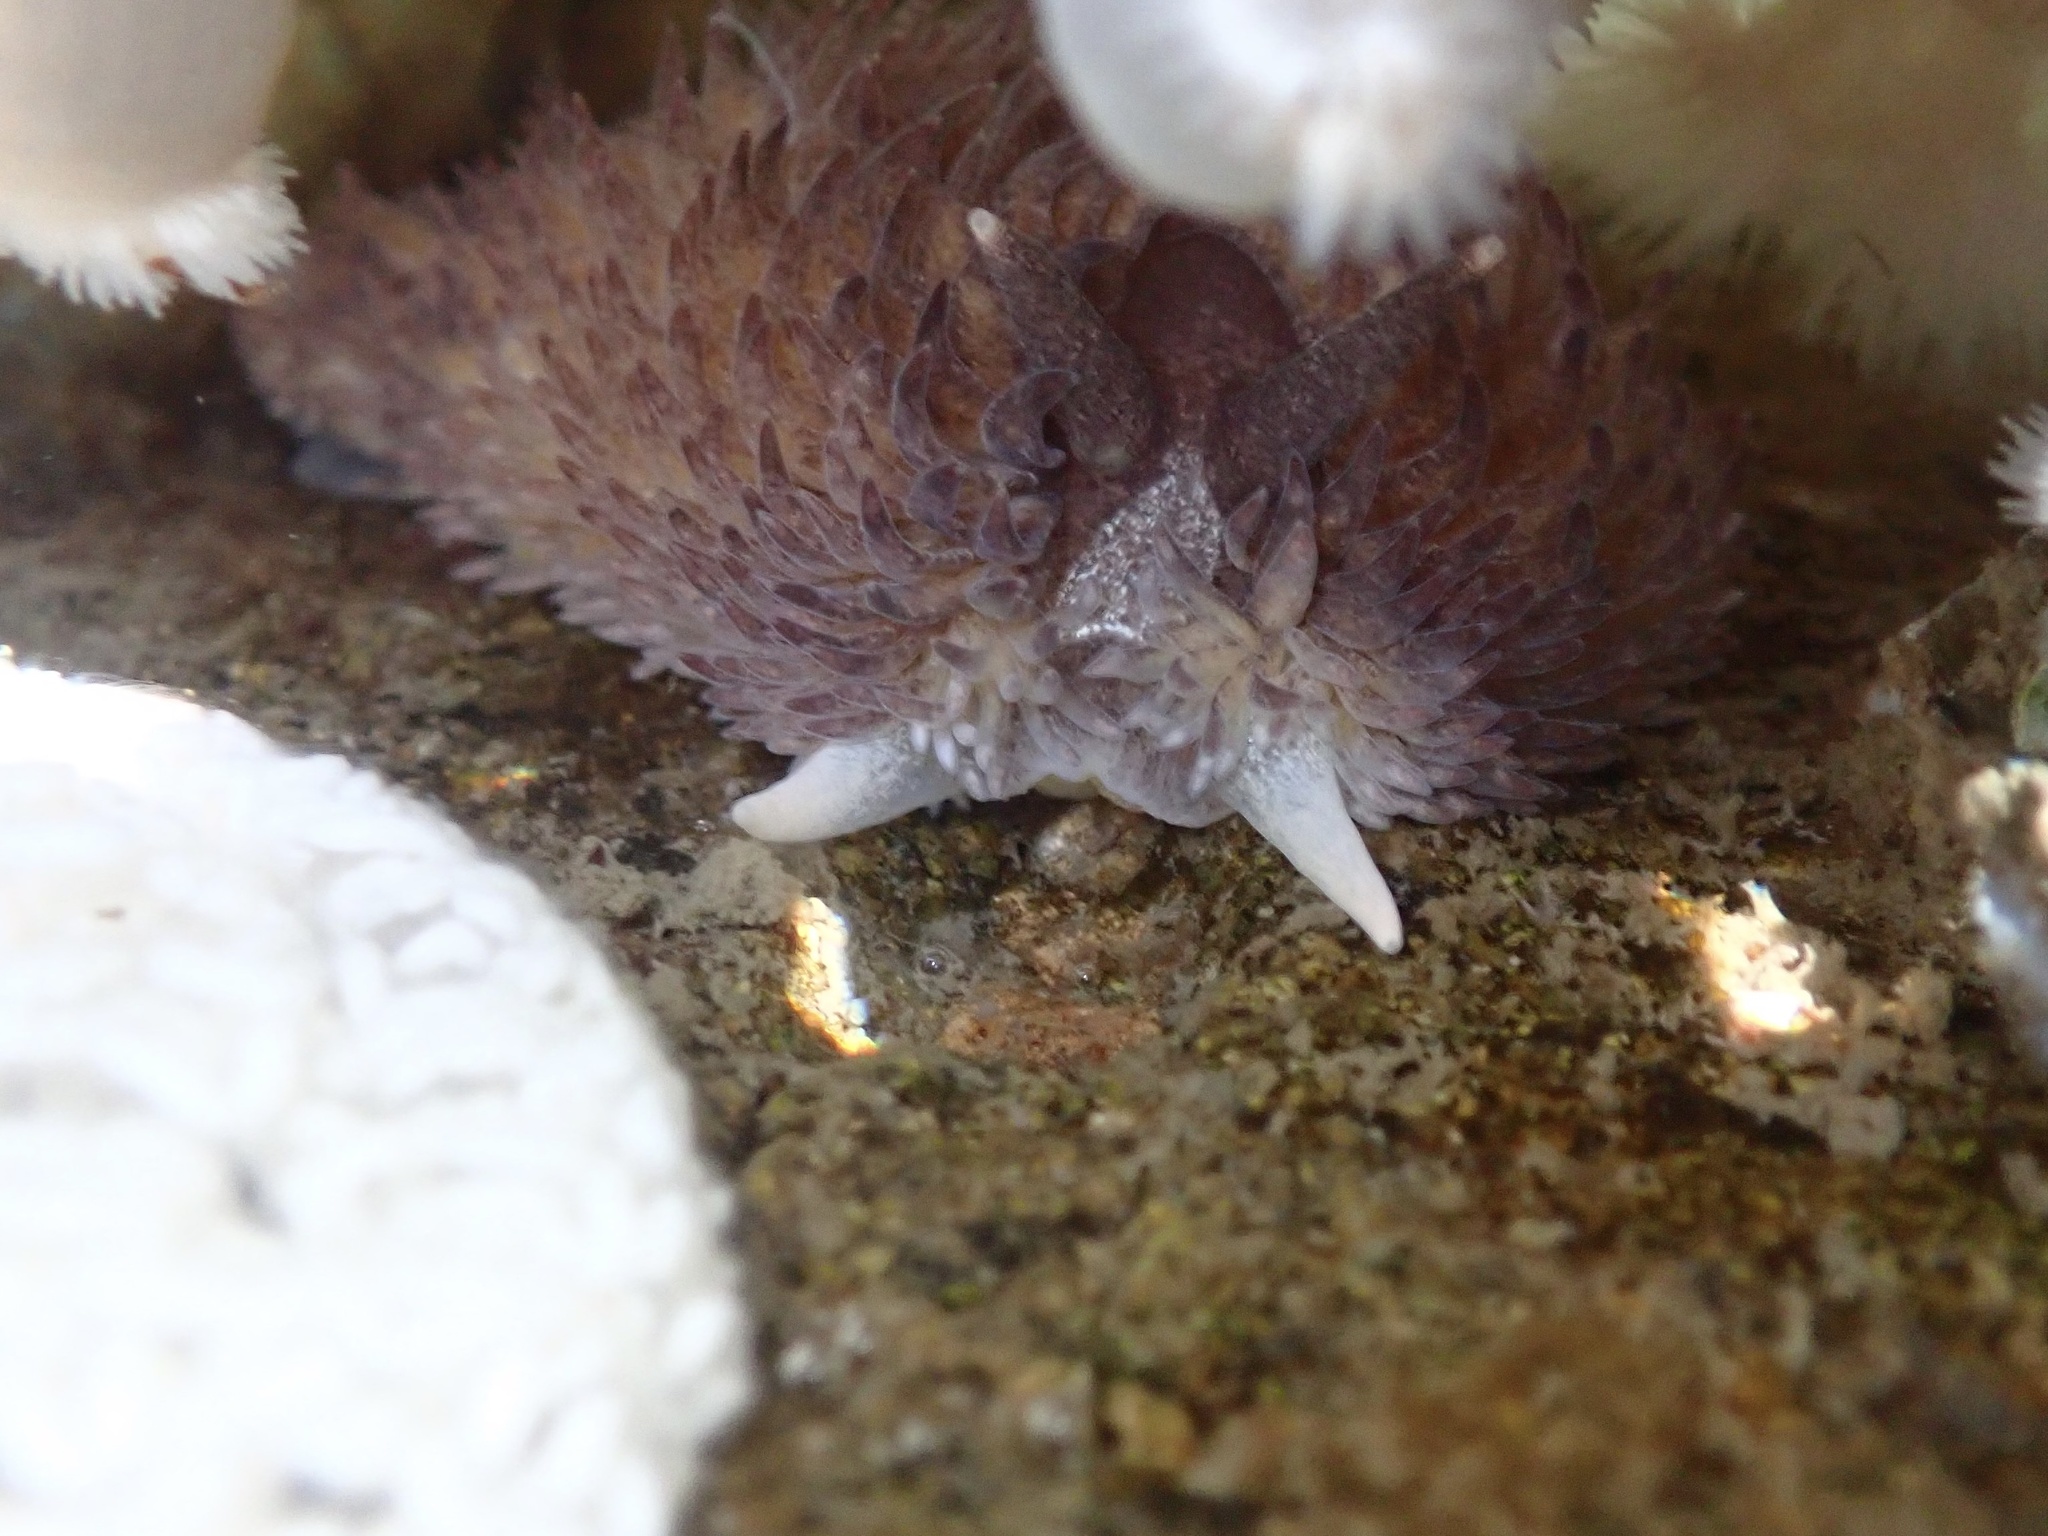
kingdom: Animalia
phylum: Mollusca
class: Gastropoda
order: Nudibranchia
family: Aeolidiidae
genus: Aeolidia
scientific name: Aeolidia papillosa
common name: Common grey sea slug
